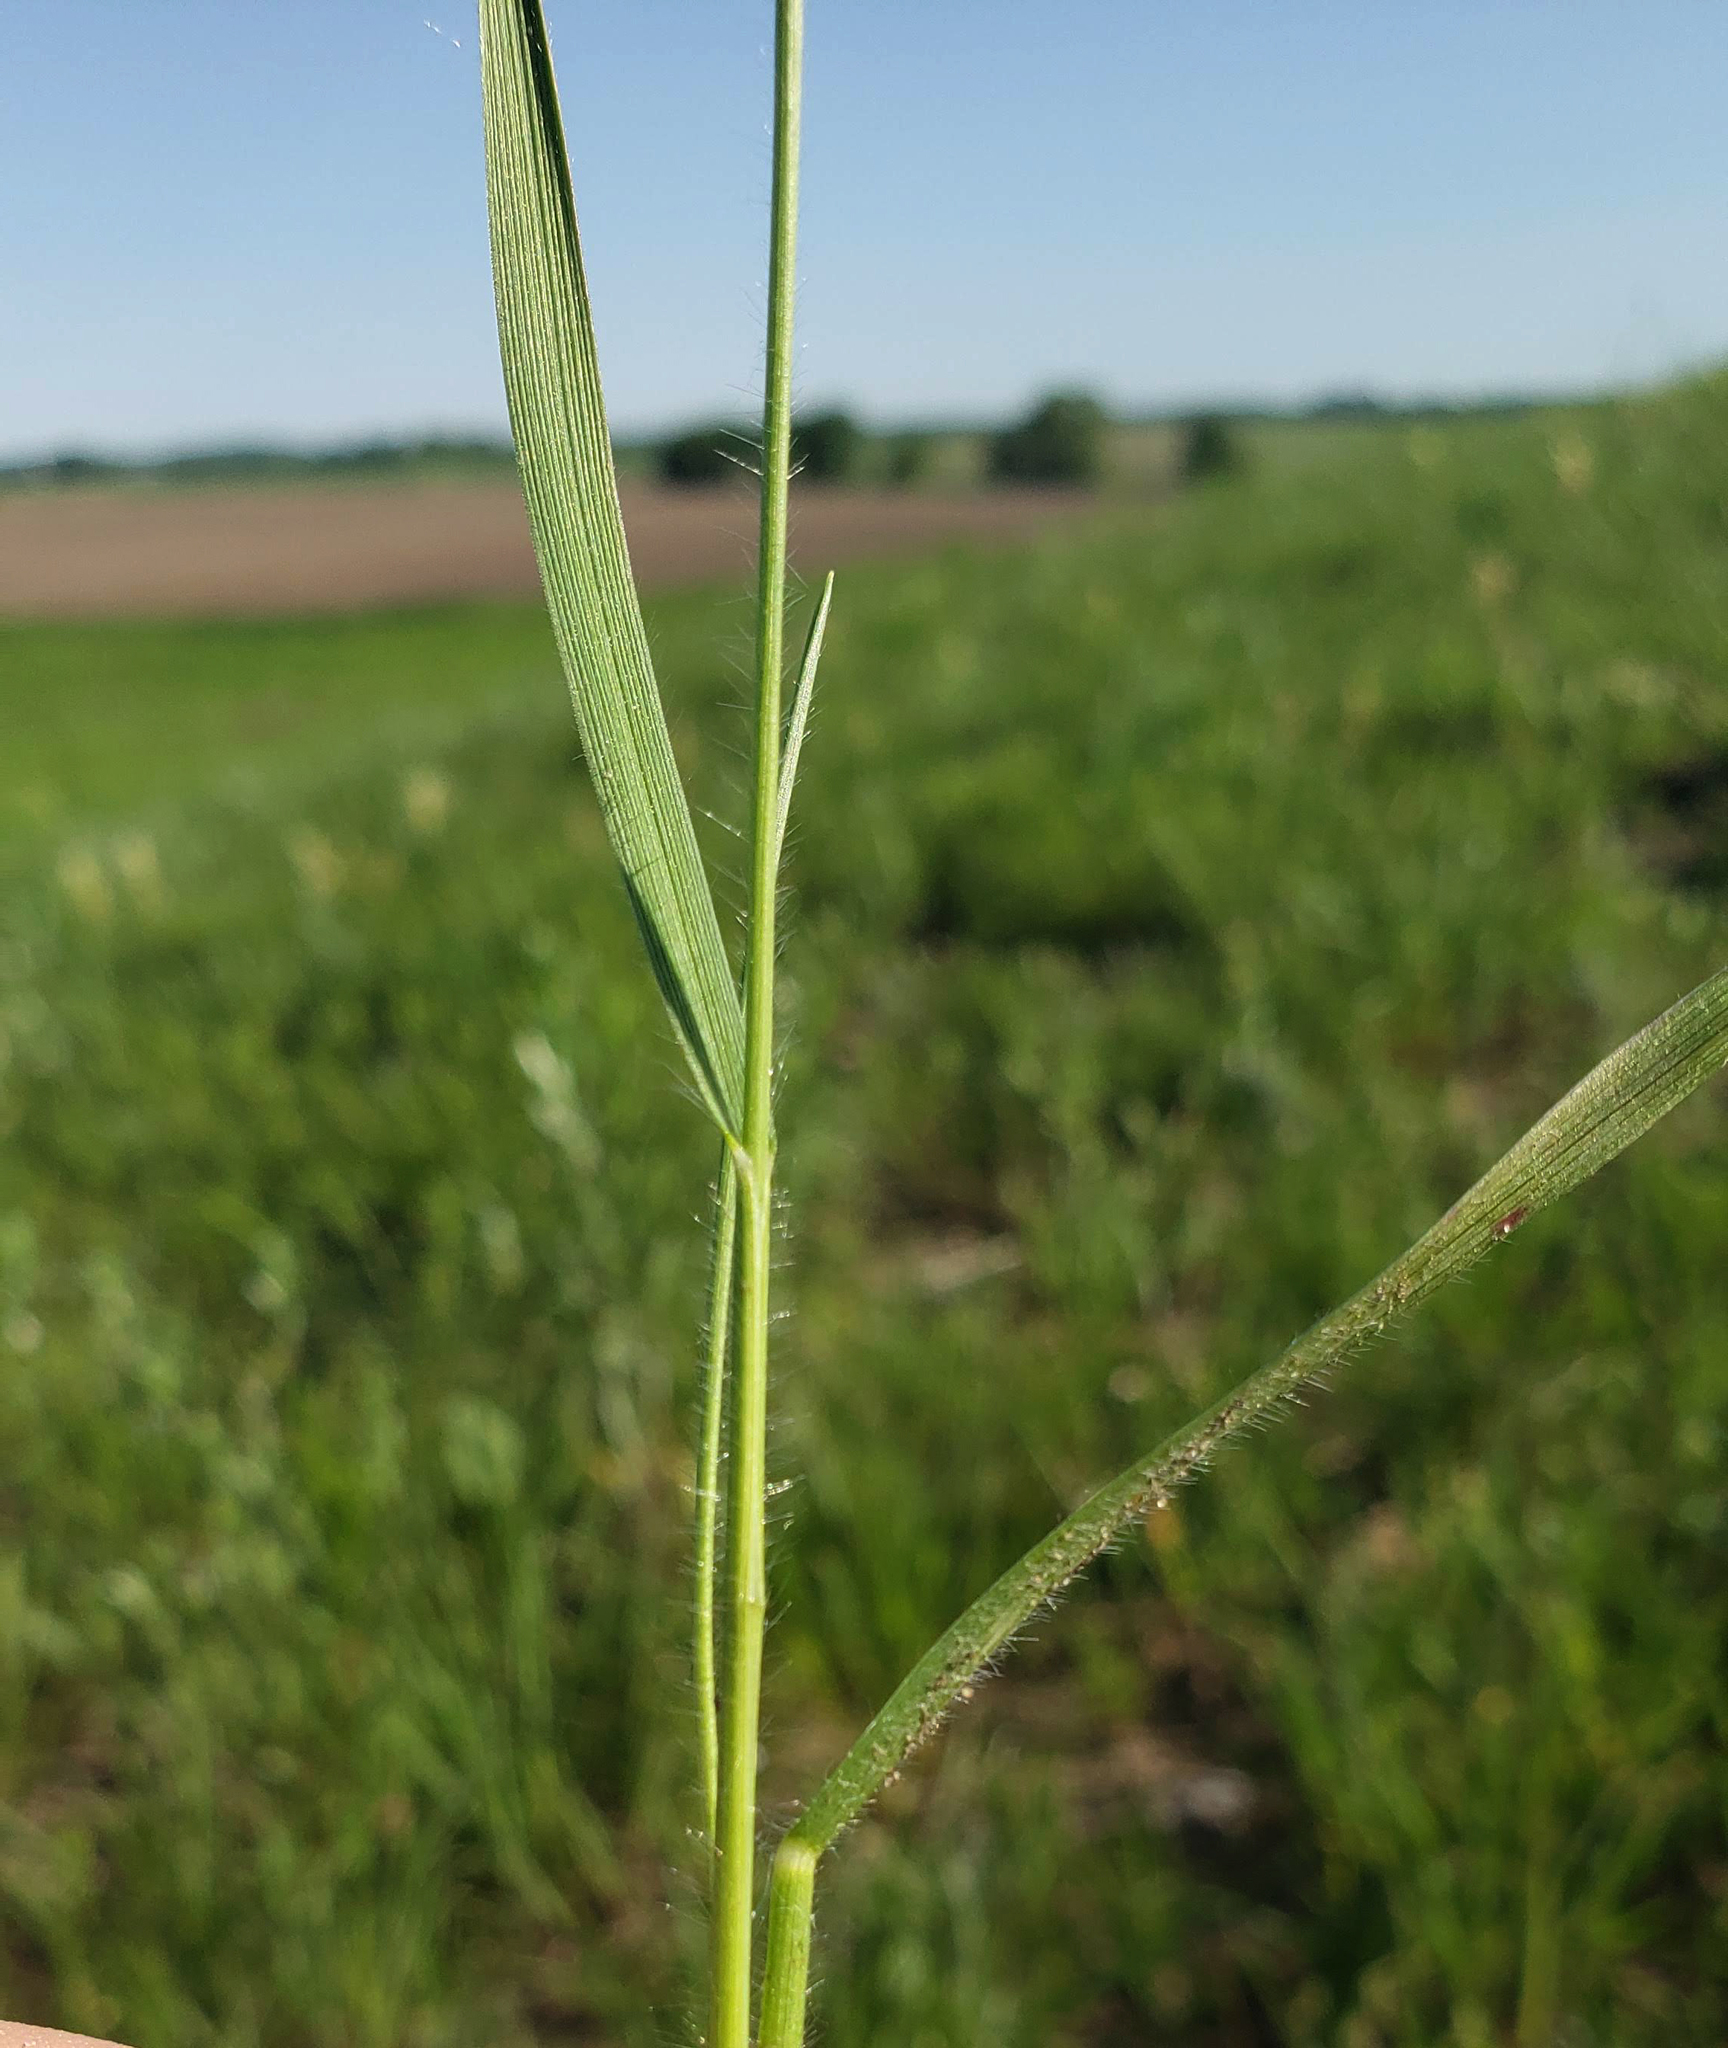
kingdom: Plantae
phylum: Tracheophyta
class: Liliopsida
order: Poales
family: Poaceae
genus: Dichanthelium
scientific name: Dichanthelium depauperatum
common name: Depauperate panicgrass
